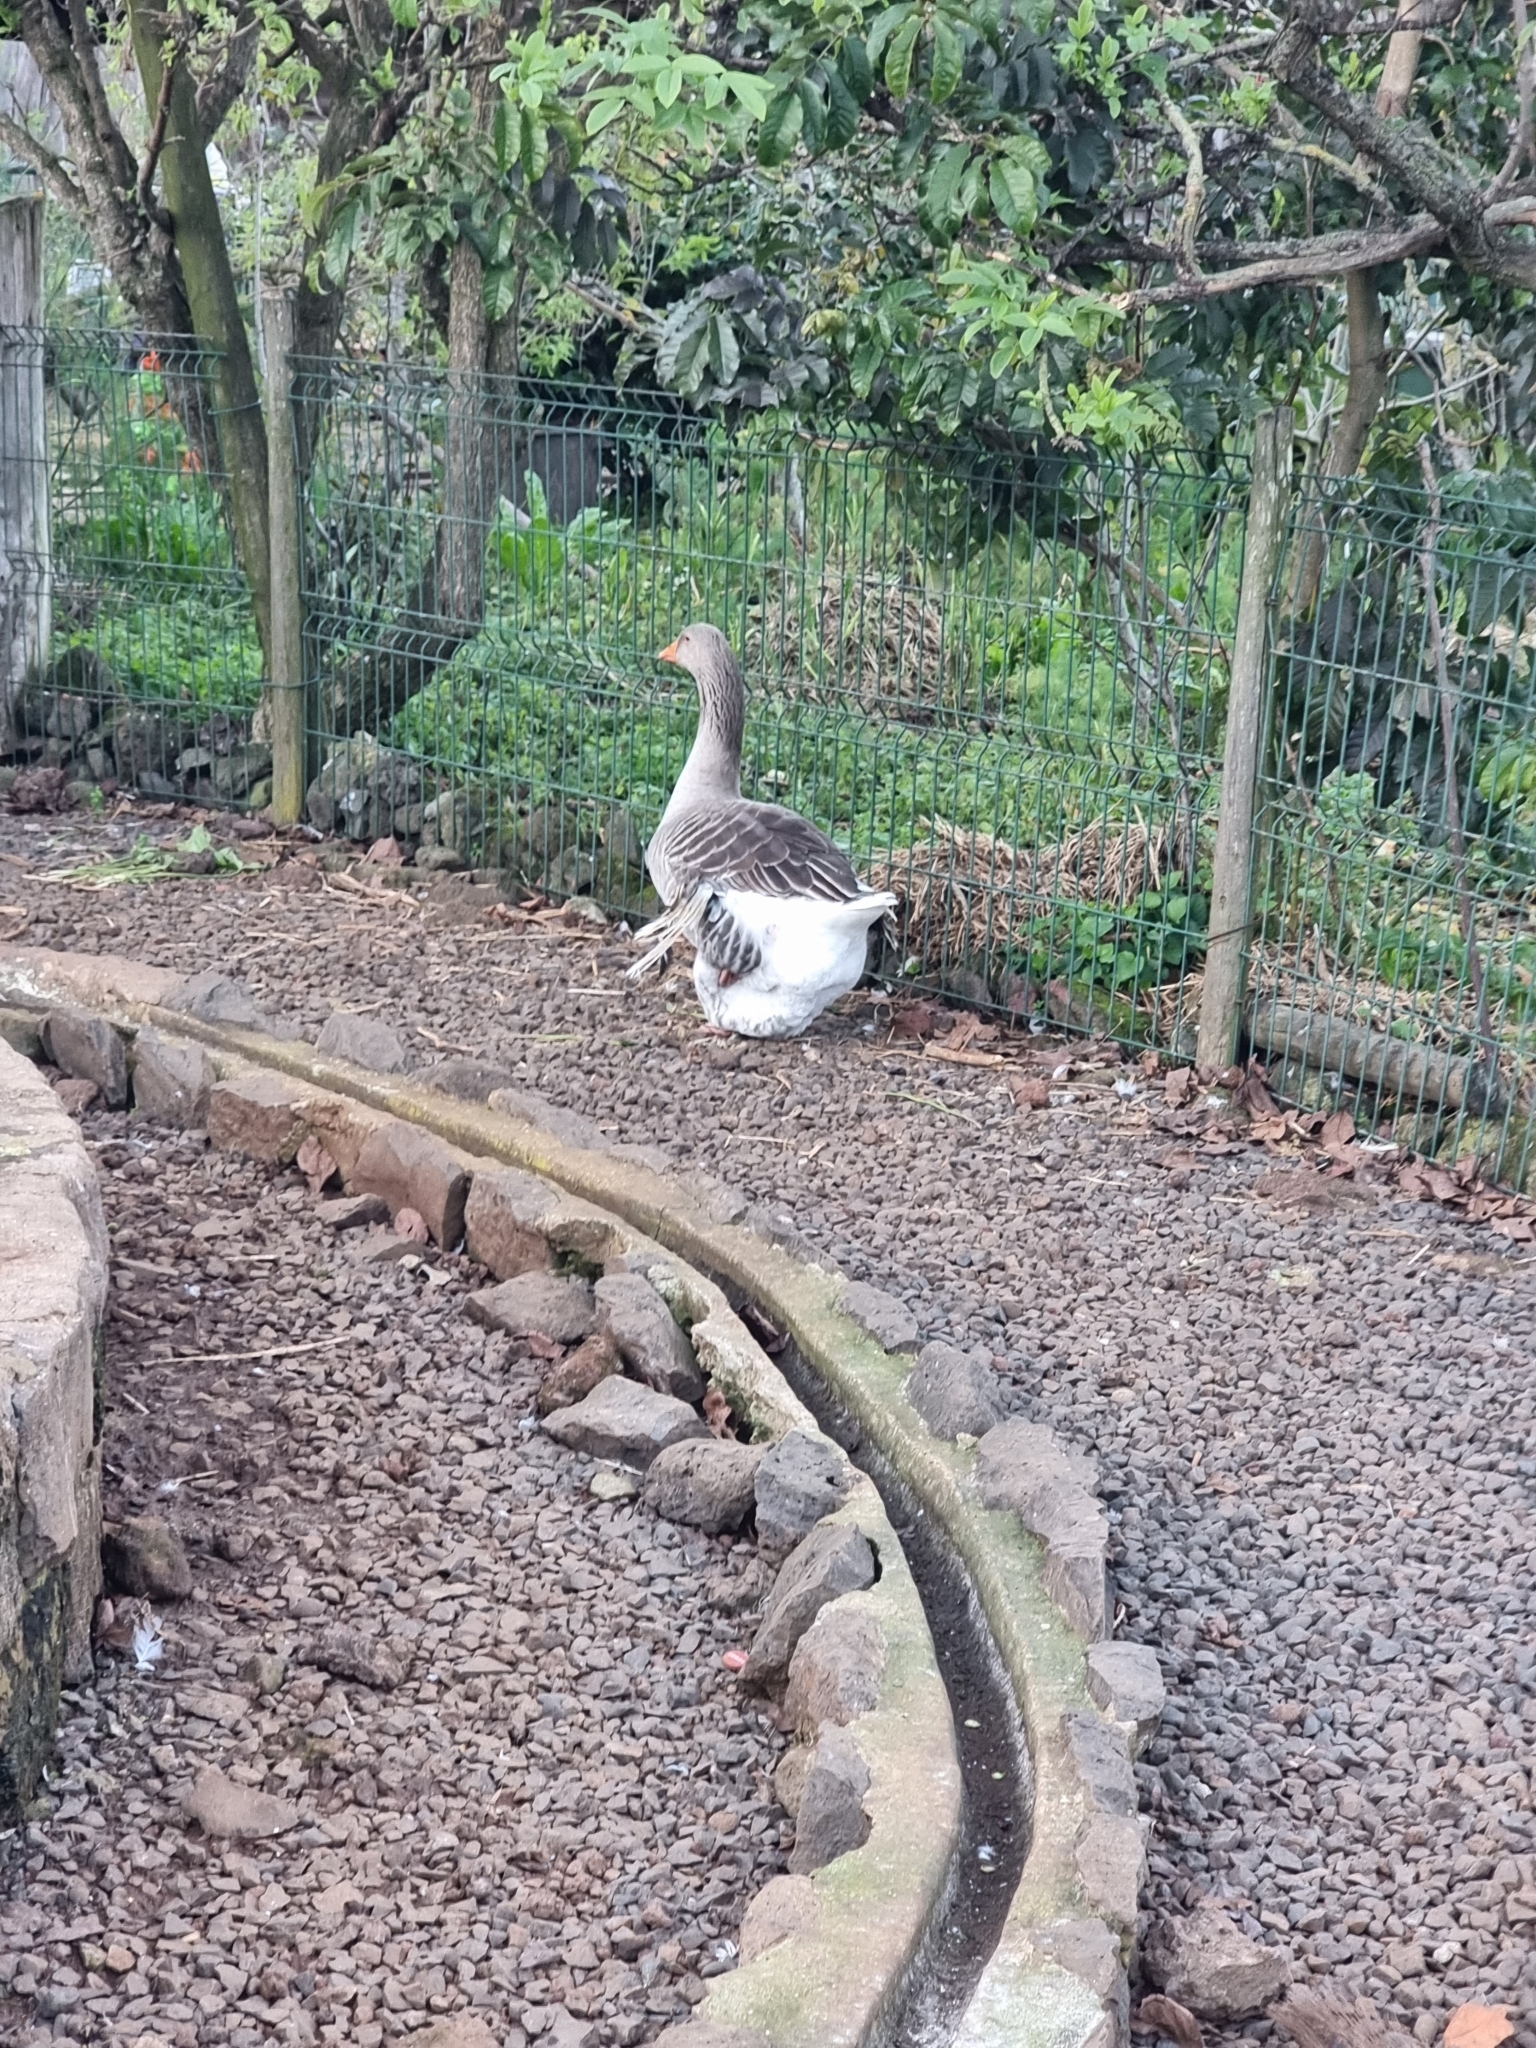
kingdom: Animalia
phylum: Chordata
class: Aves
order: Anseriformes
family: Anatidae
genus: Anser
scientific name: Anser anser
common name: Greylag goose
